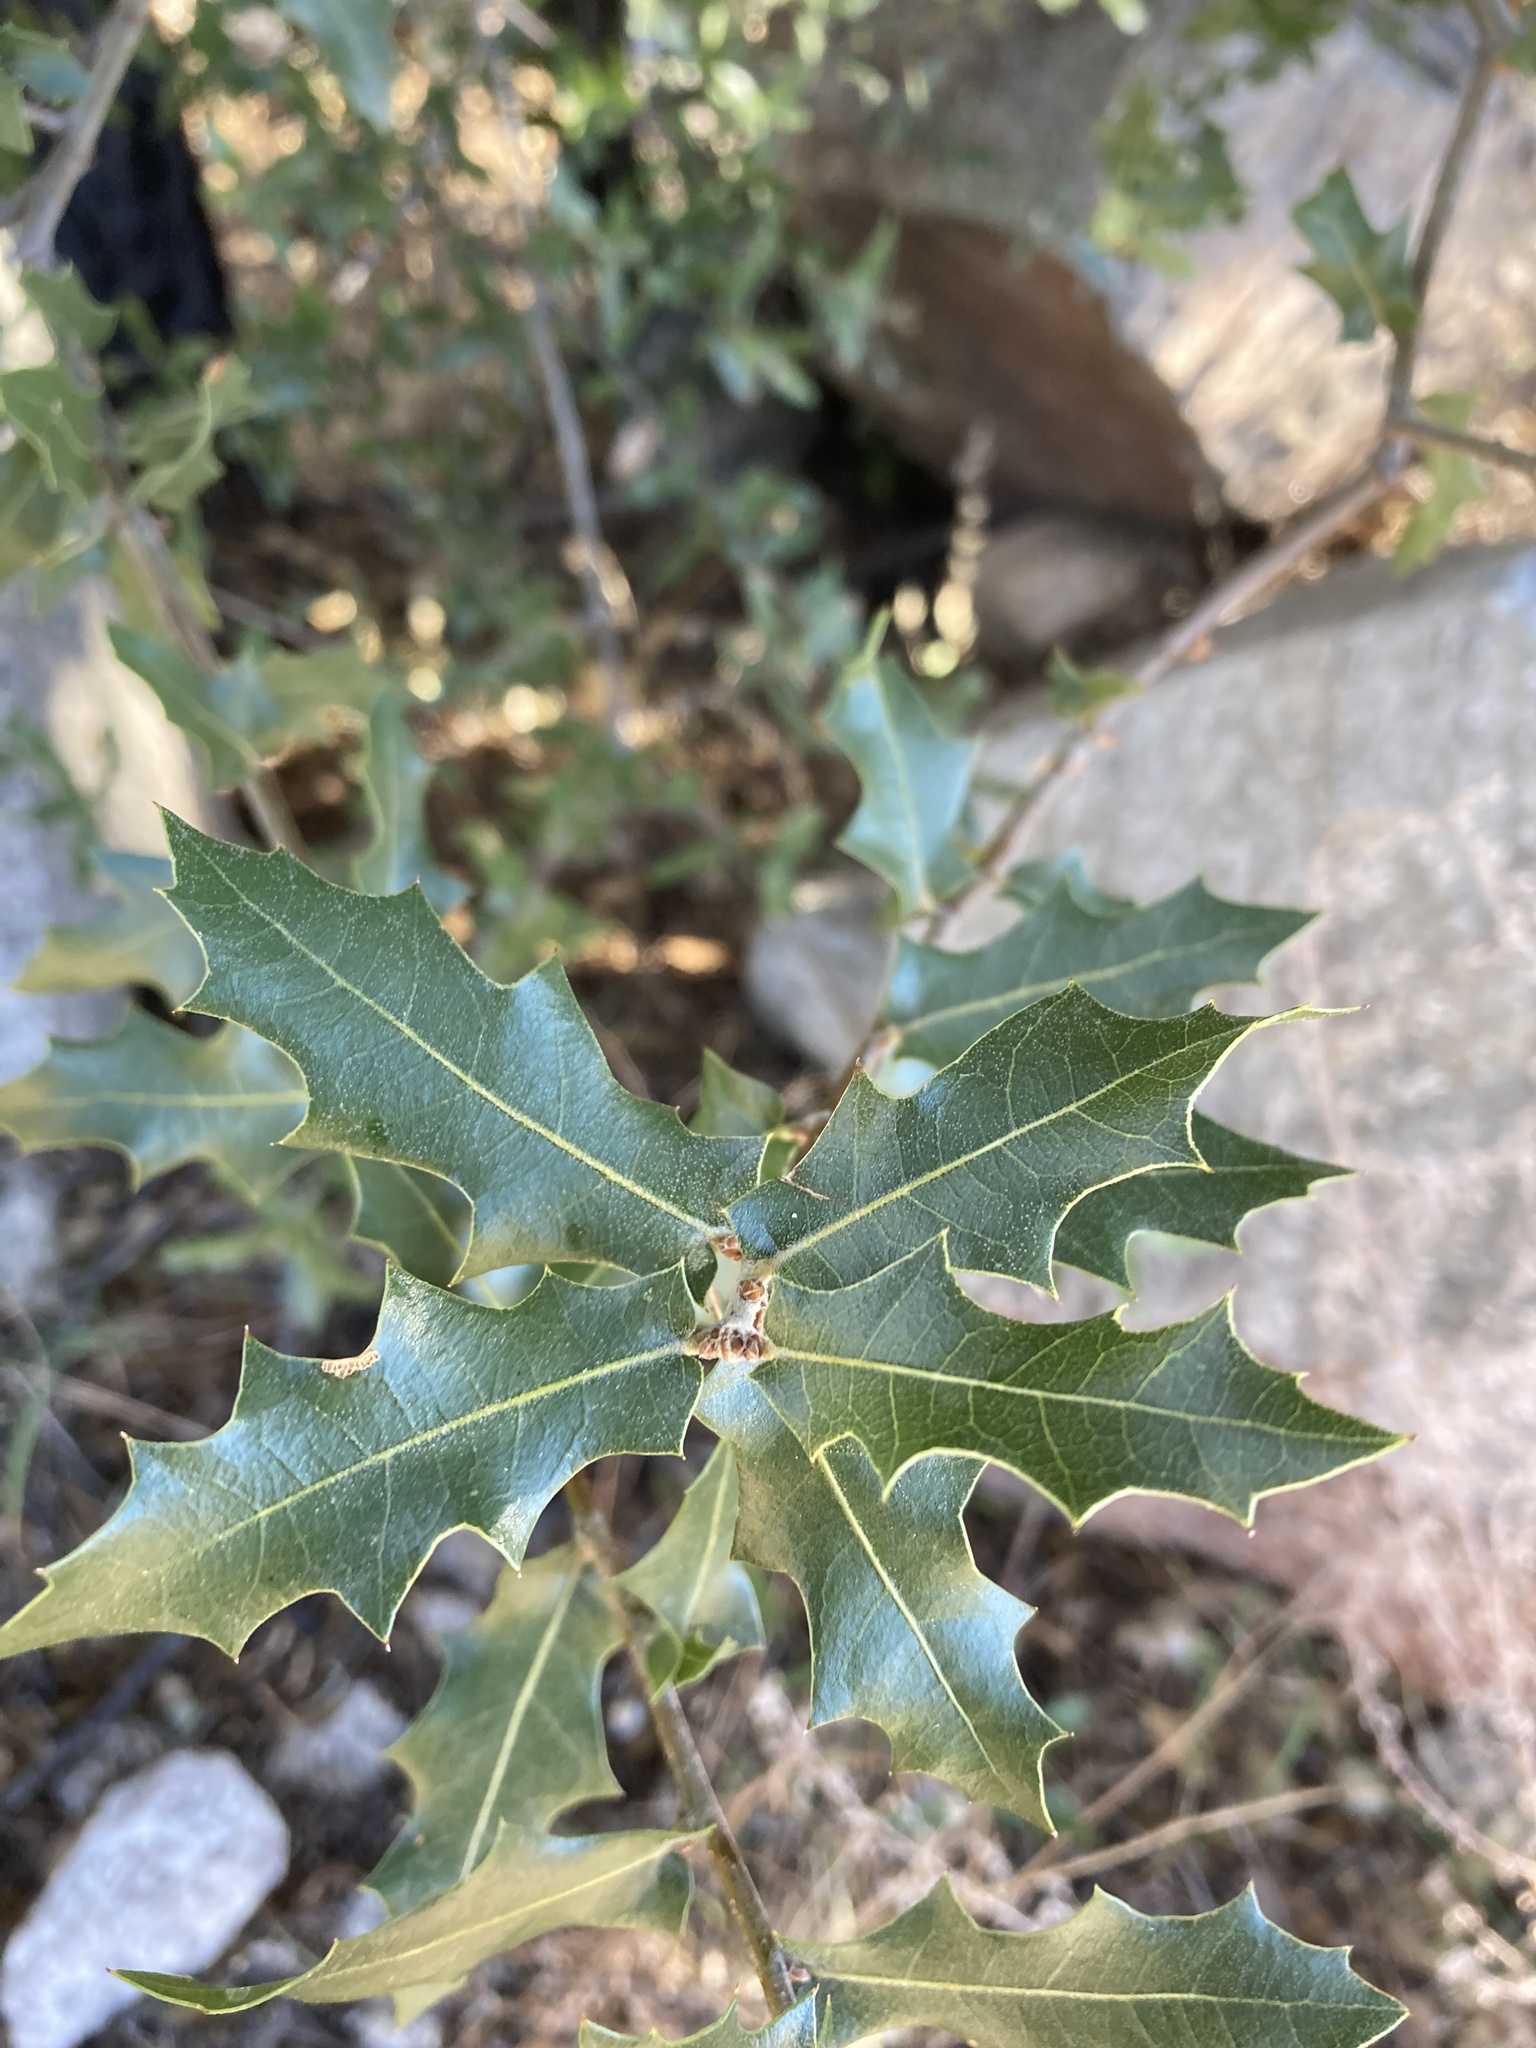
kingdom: Plantae
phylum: Tracheophyta
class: Magnoliopsida
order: Fagales
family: Fagaceae
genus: Quercus
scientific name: Quercus emoryi
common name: Emory oak
